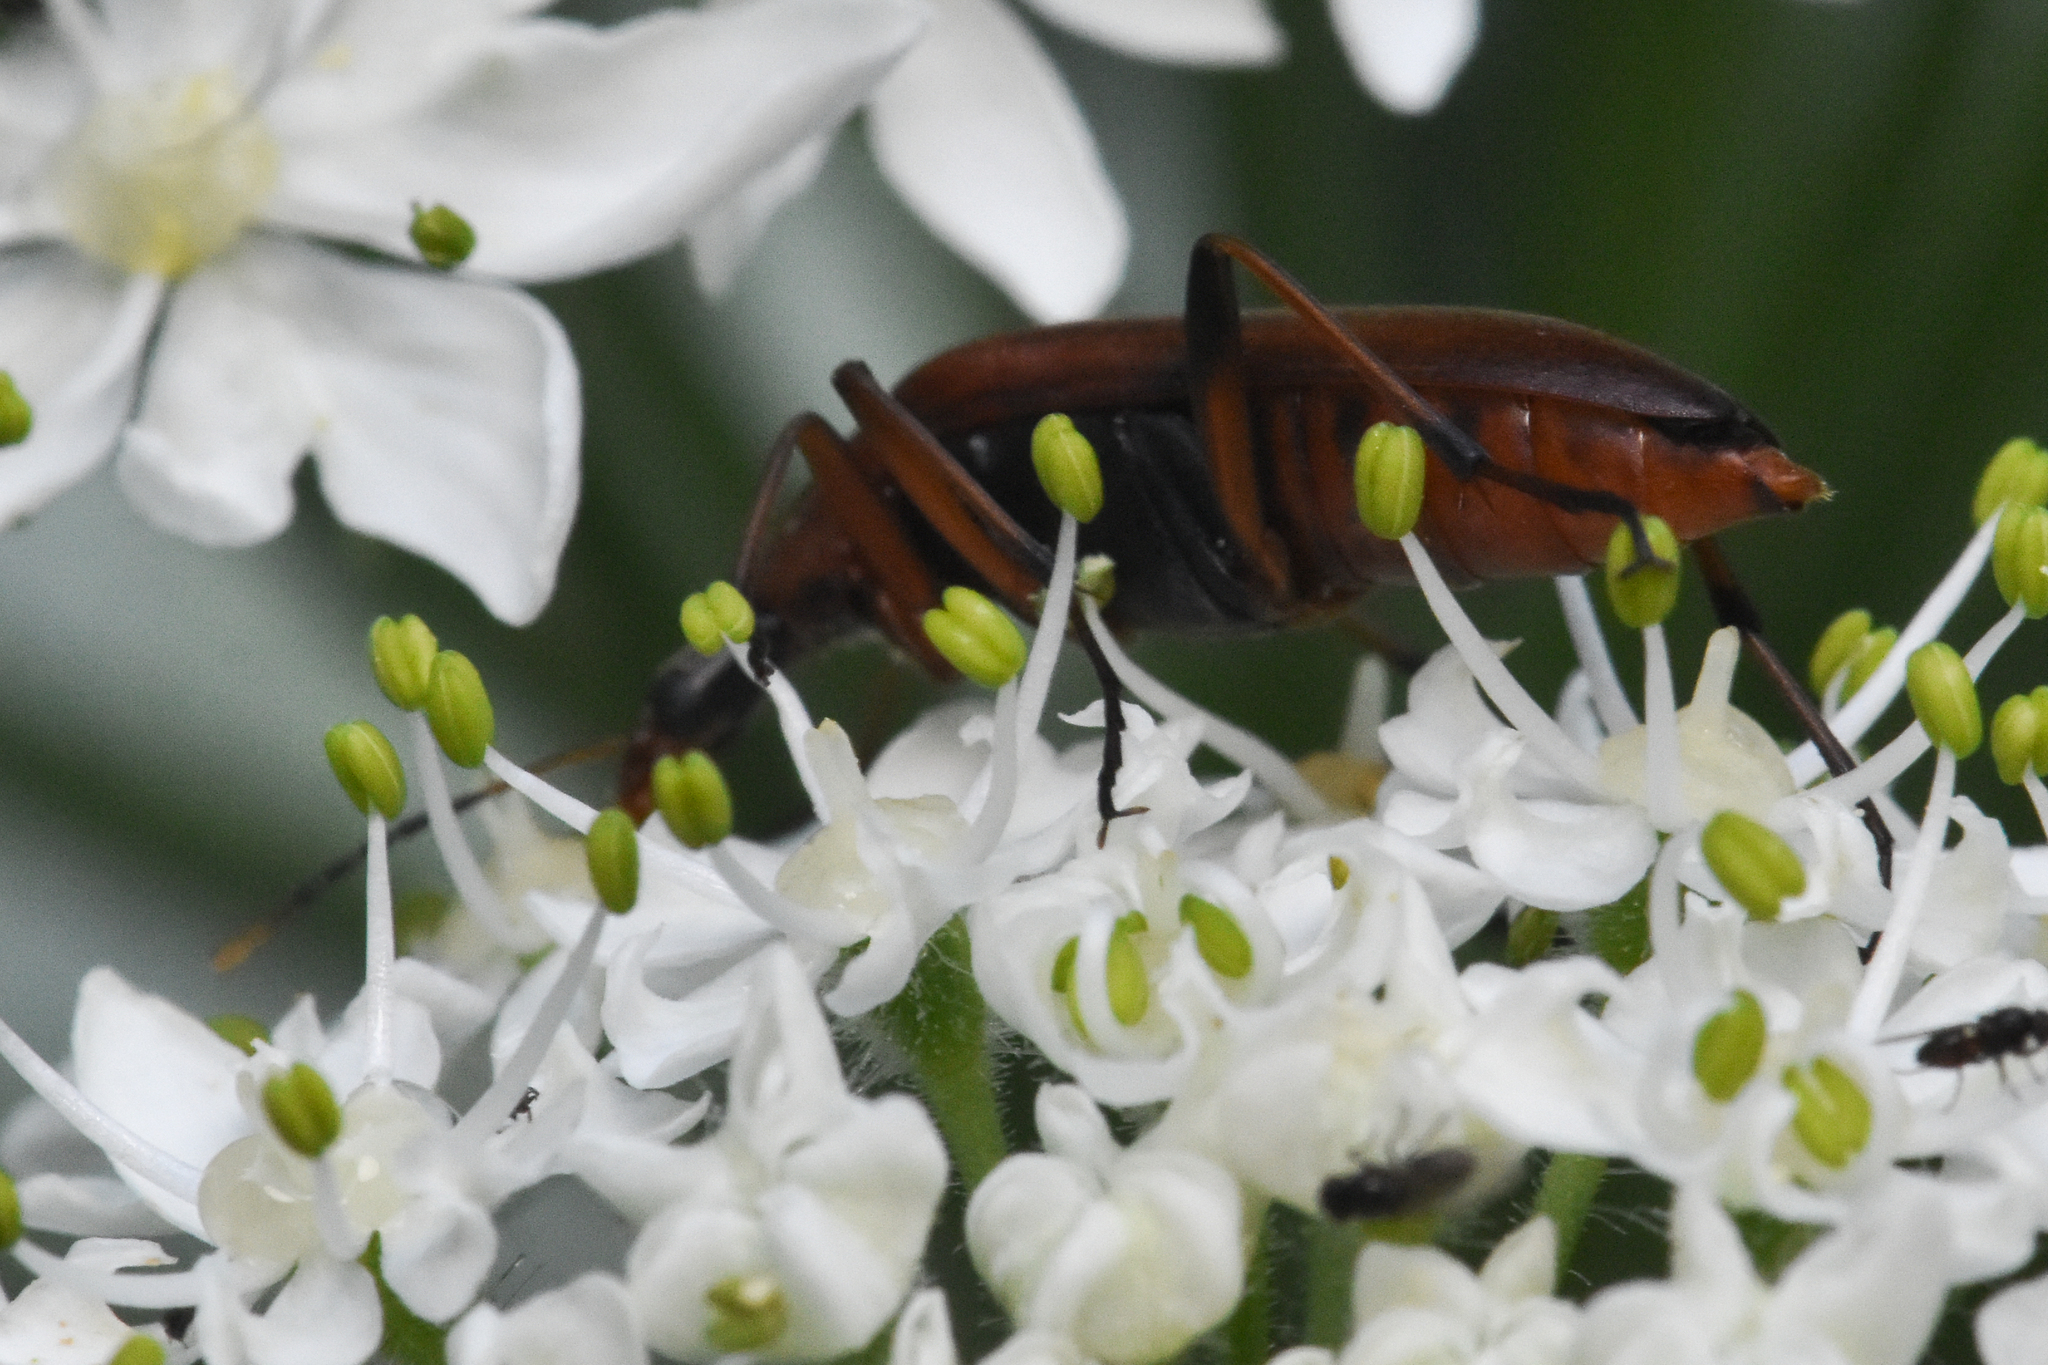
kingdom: Animalia
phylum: Arthropoda
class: Insecta
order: Coleoptera
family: Stenotrachelidae
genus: Cephaloon
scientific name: Cephaloon
